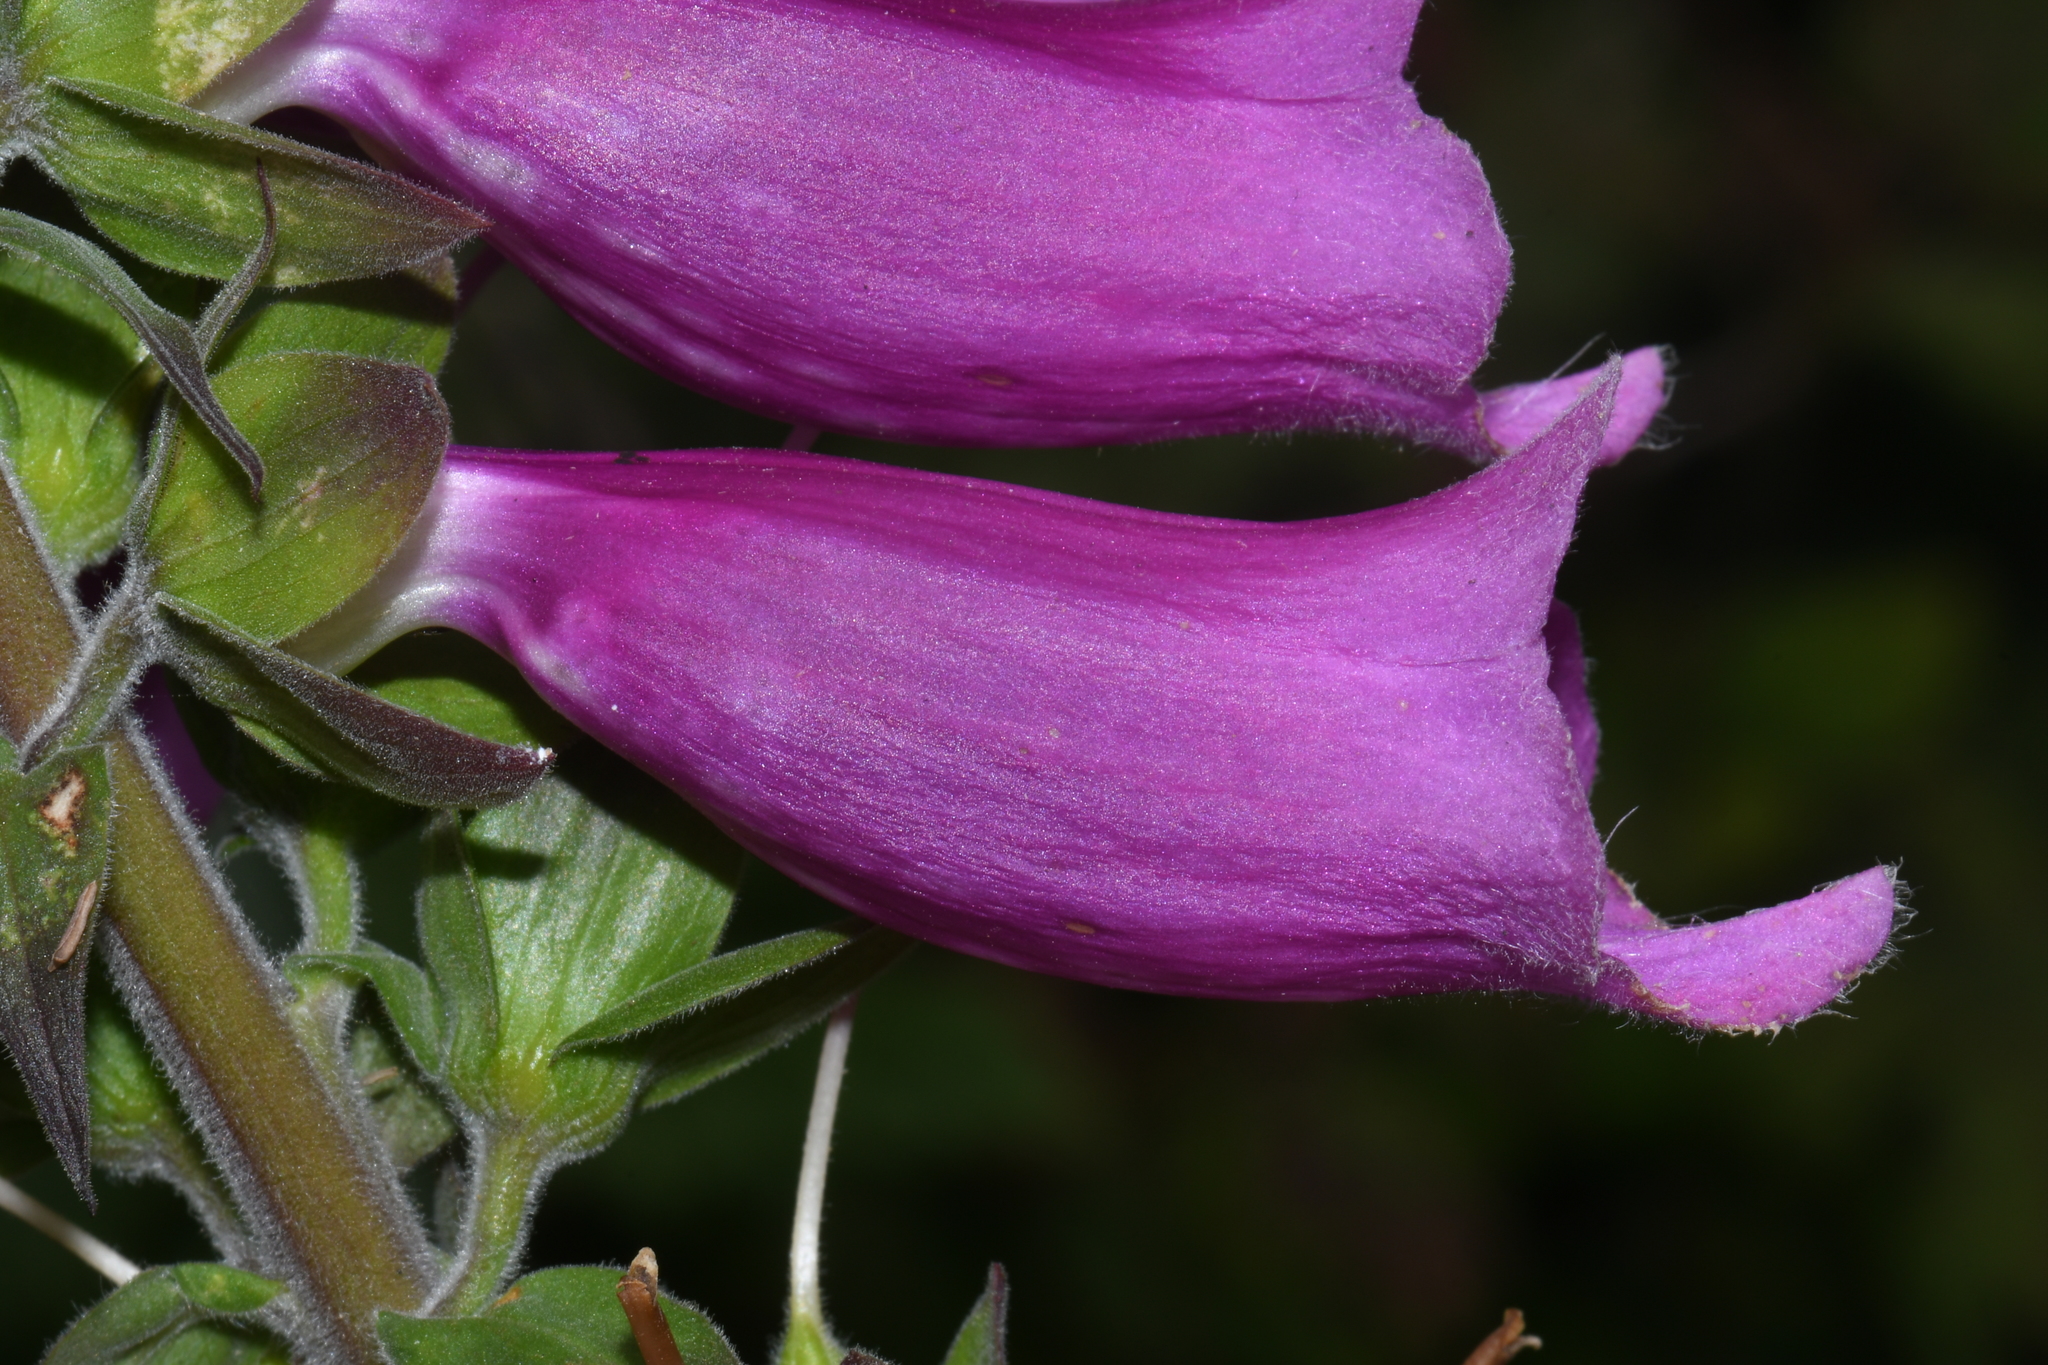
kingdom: Plantae
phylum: Tracheophyta
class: Magnoliopsida
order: Lamiales
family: Plantaginaceae
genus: Digitalis
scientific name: Digitalis purpurea
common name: Foxglove
